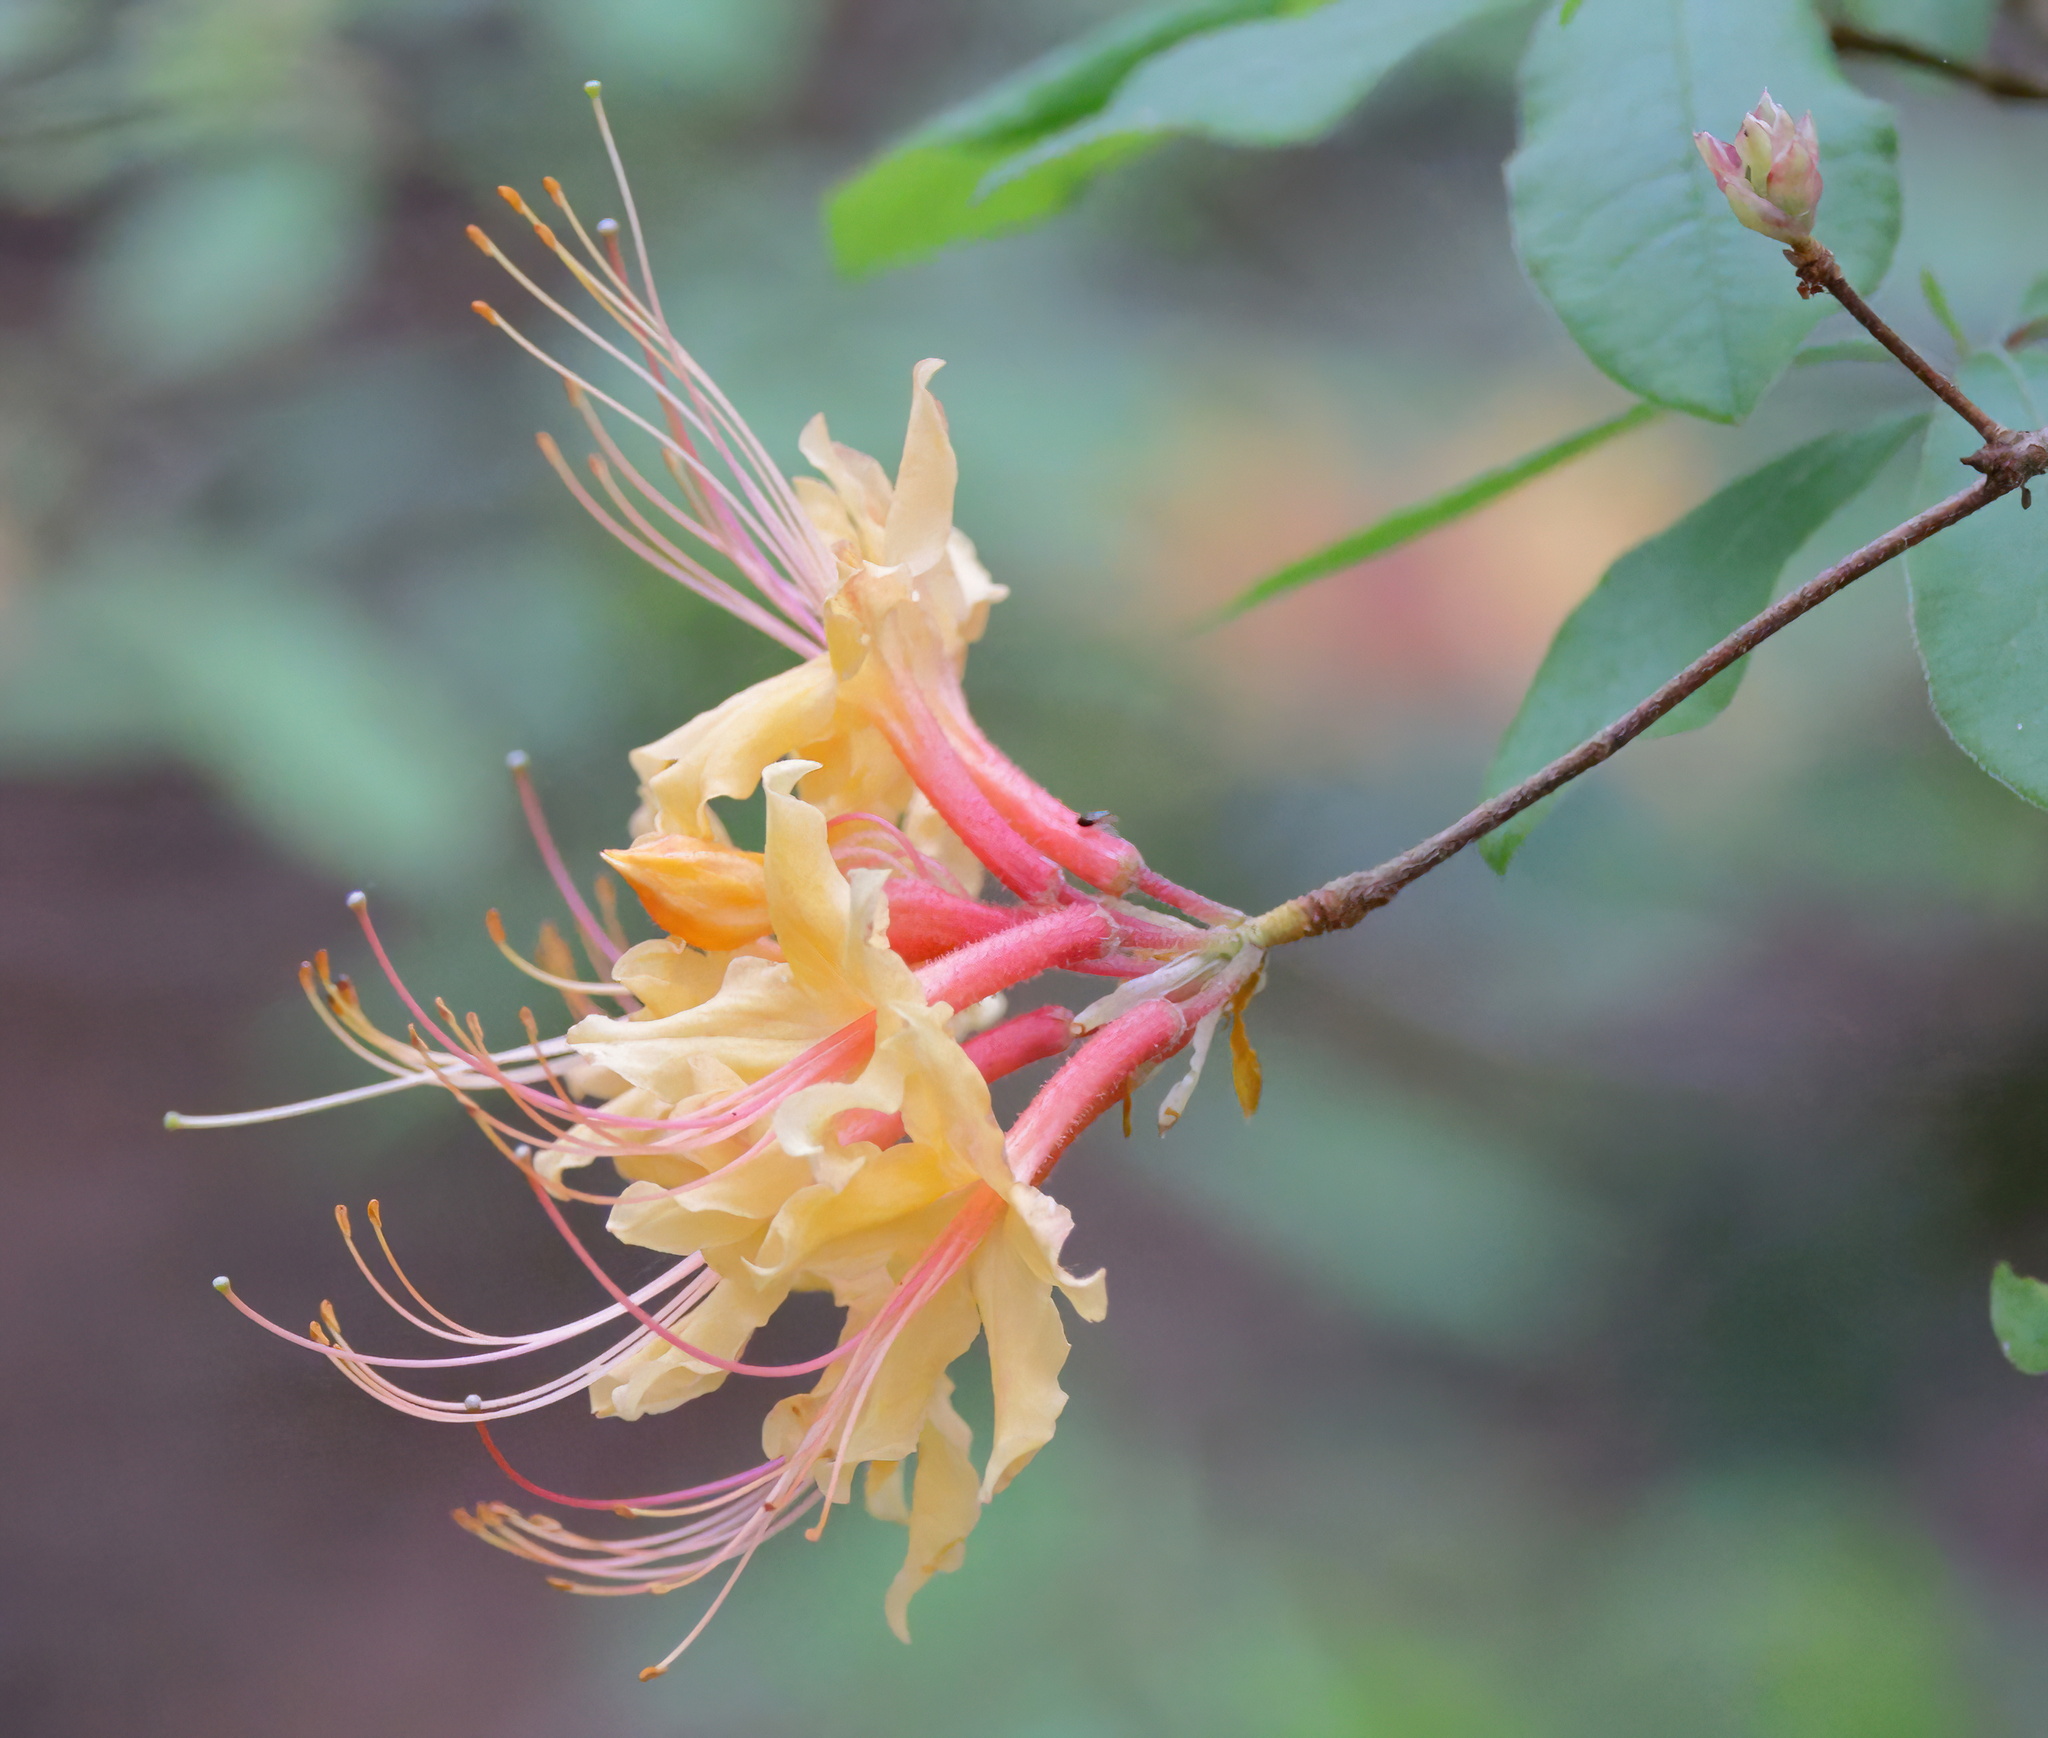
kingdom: Plantae
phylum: Tracheophyta
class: Magnoliopsida
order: Ericales
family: Ericaceae
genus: Rhododendron
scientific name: Rhododendron austrinum
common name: Florida azalea
